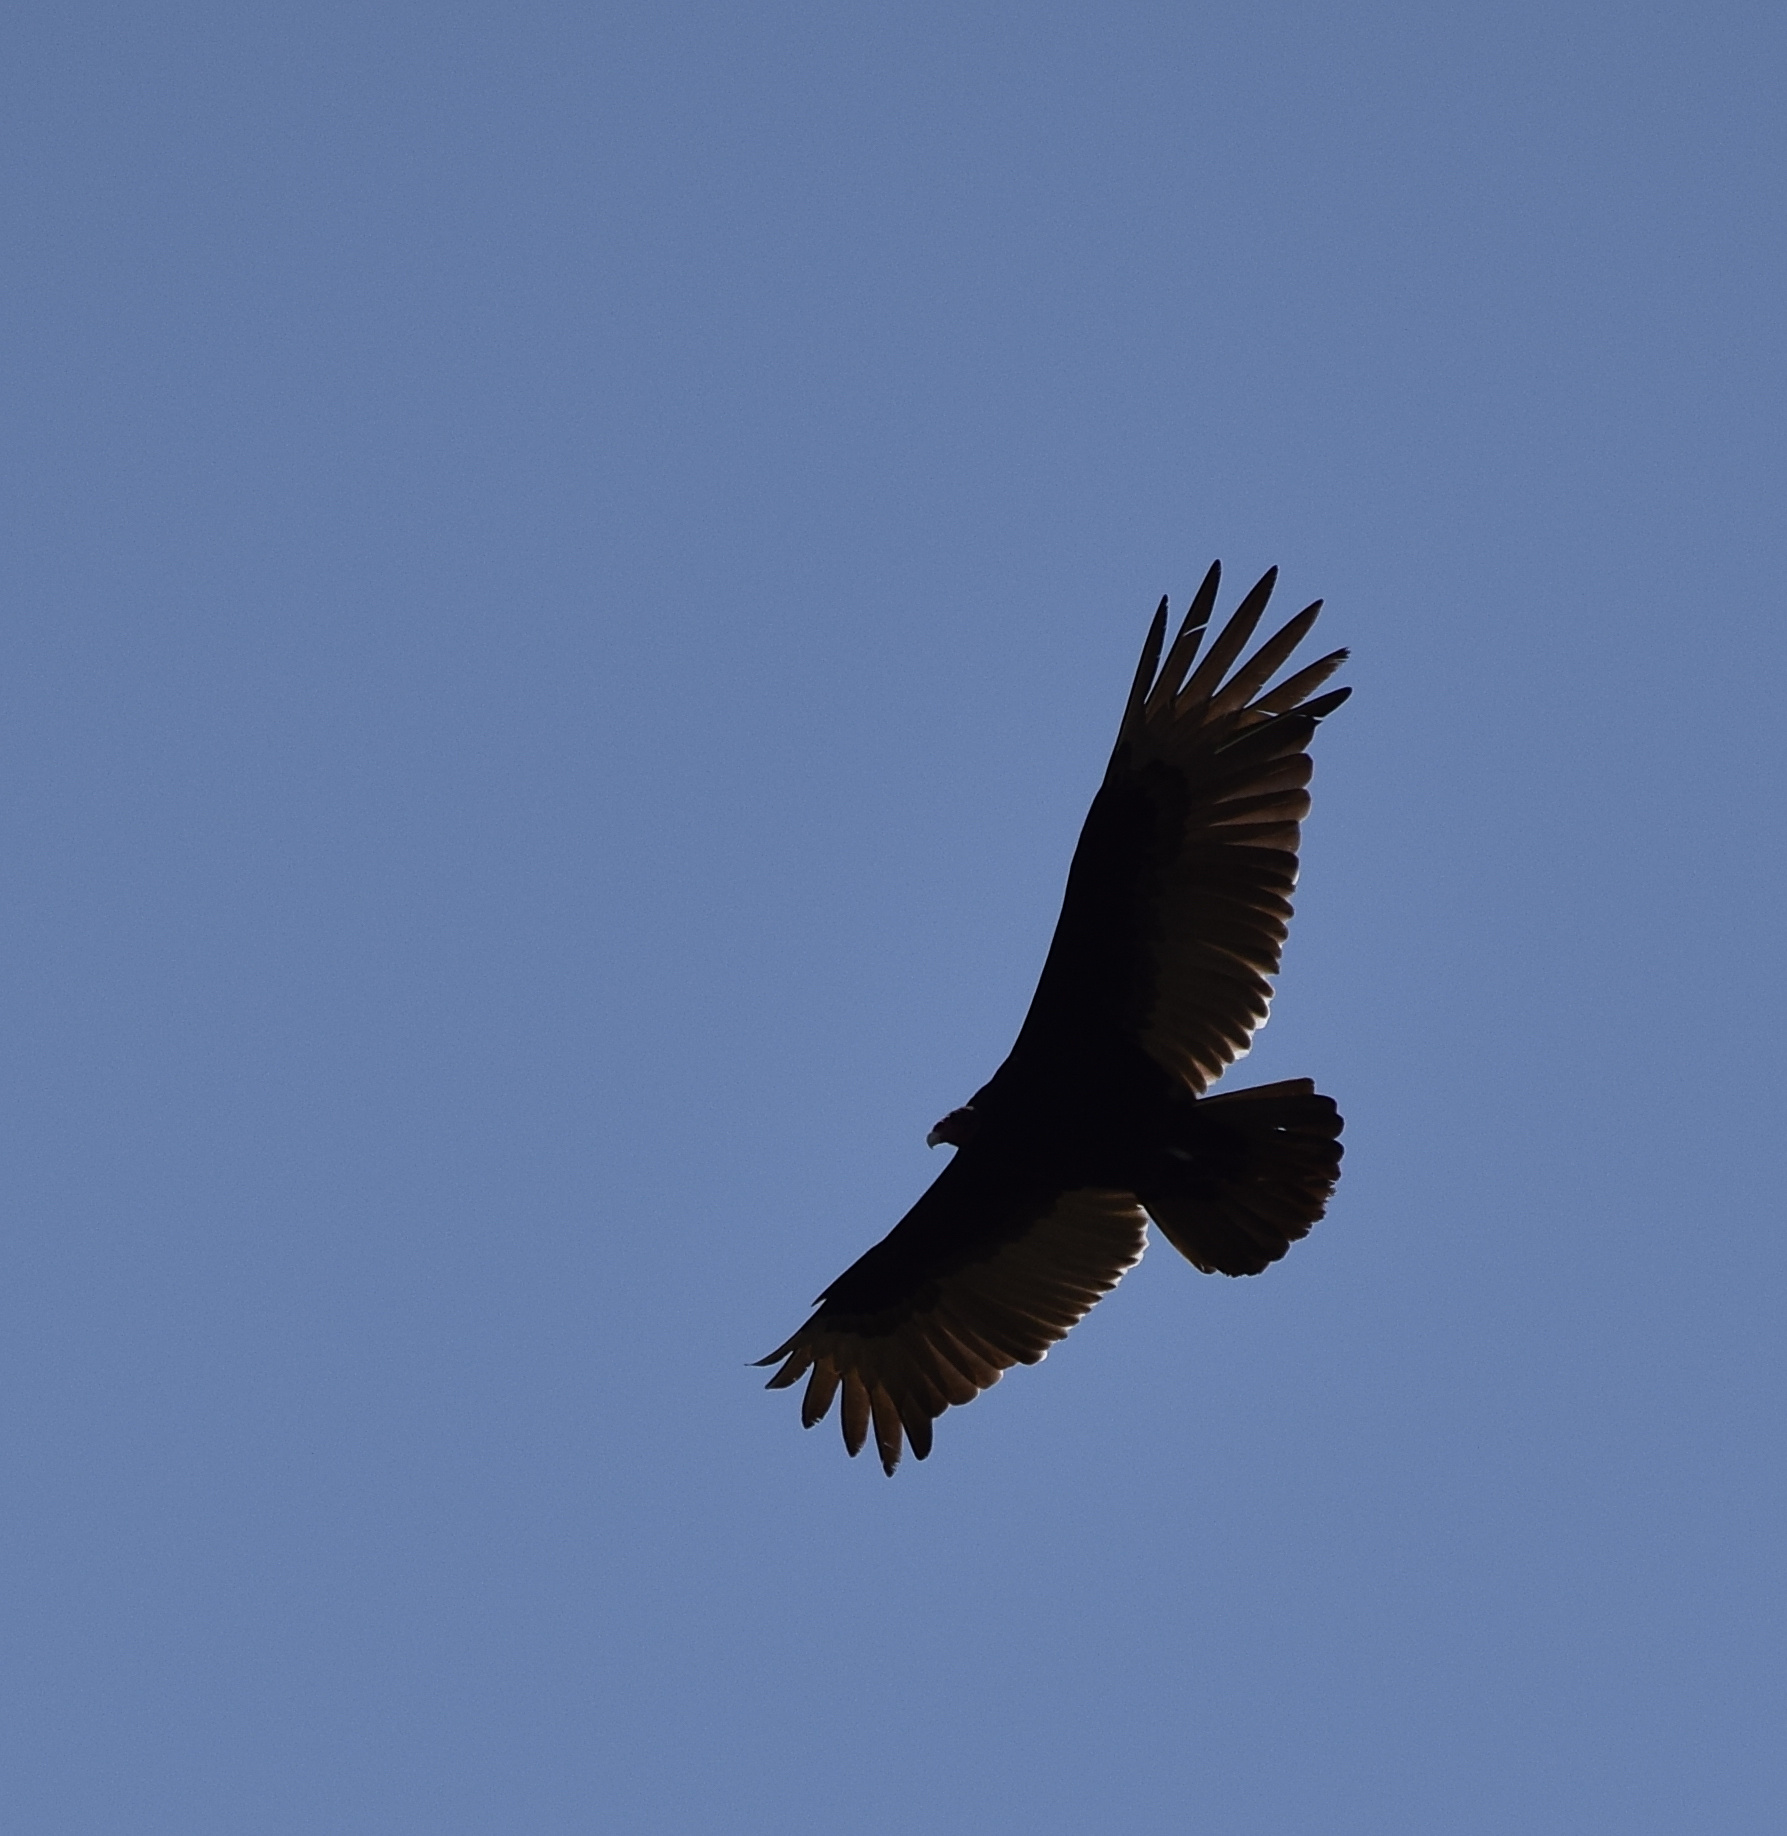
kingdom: Animalia
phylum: Chordata
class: Aves
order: Accipitriformes
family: Cathartidae
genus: Cathartes
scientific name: Cathartes aura
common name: Turkey vulture
